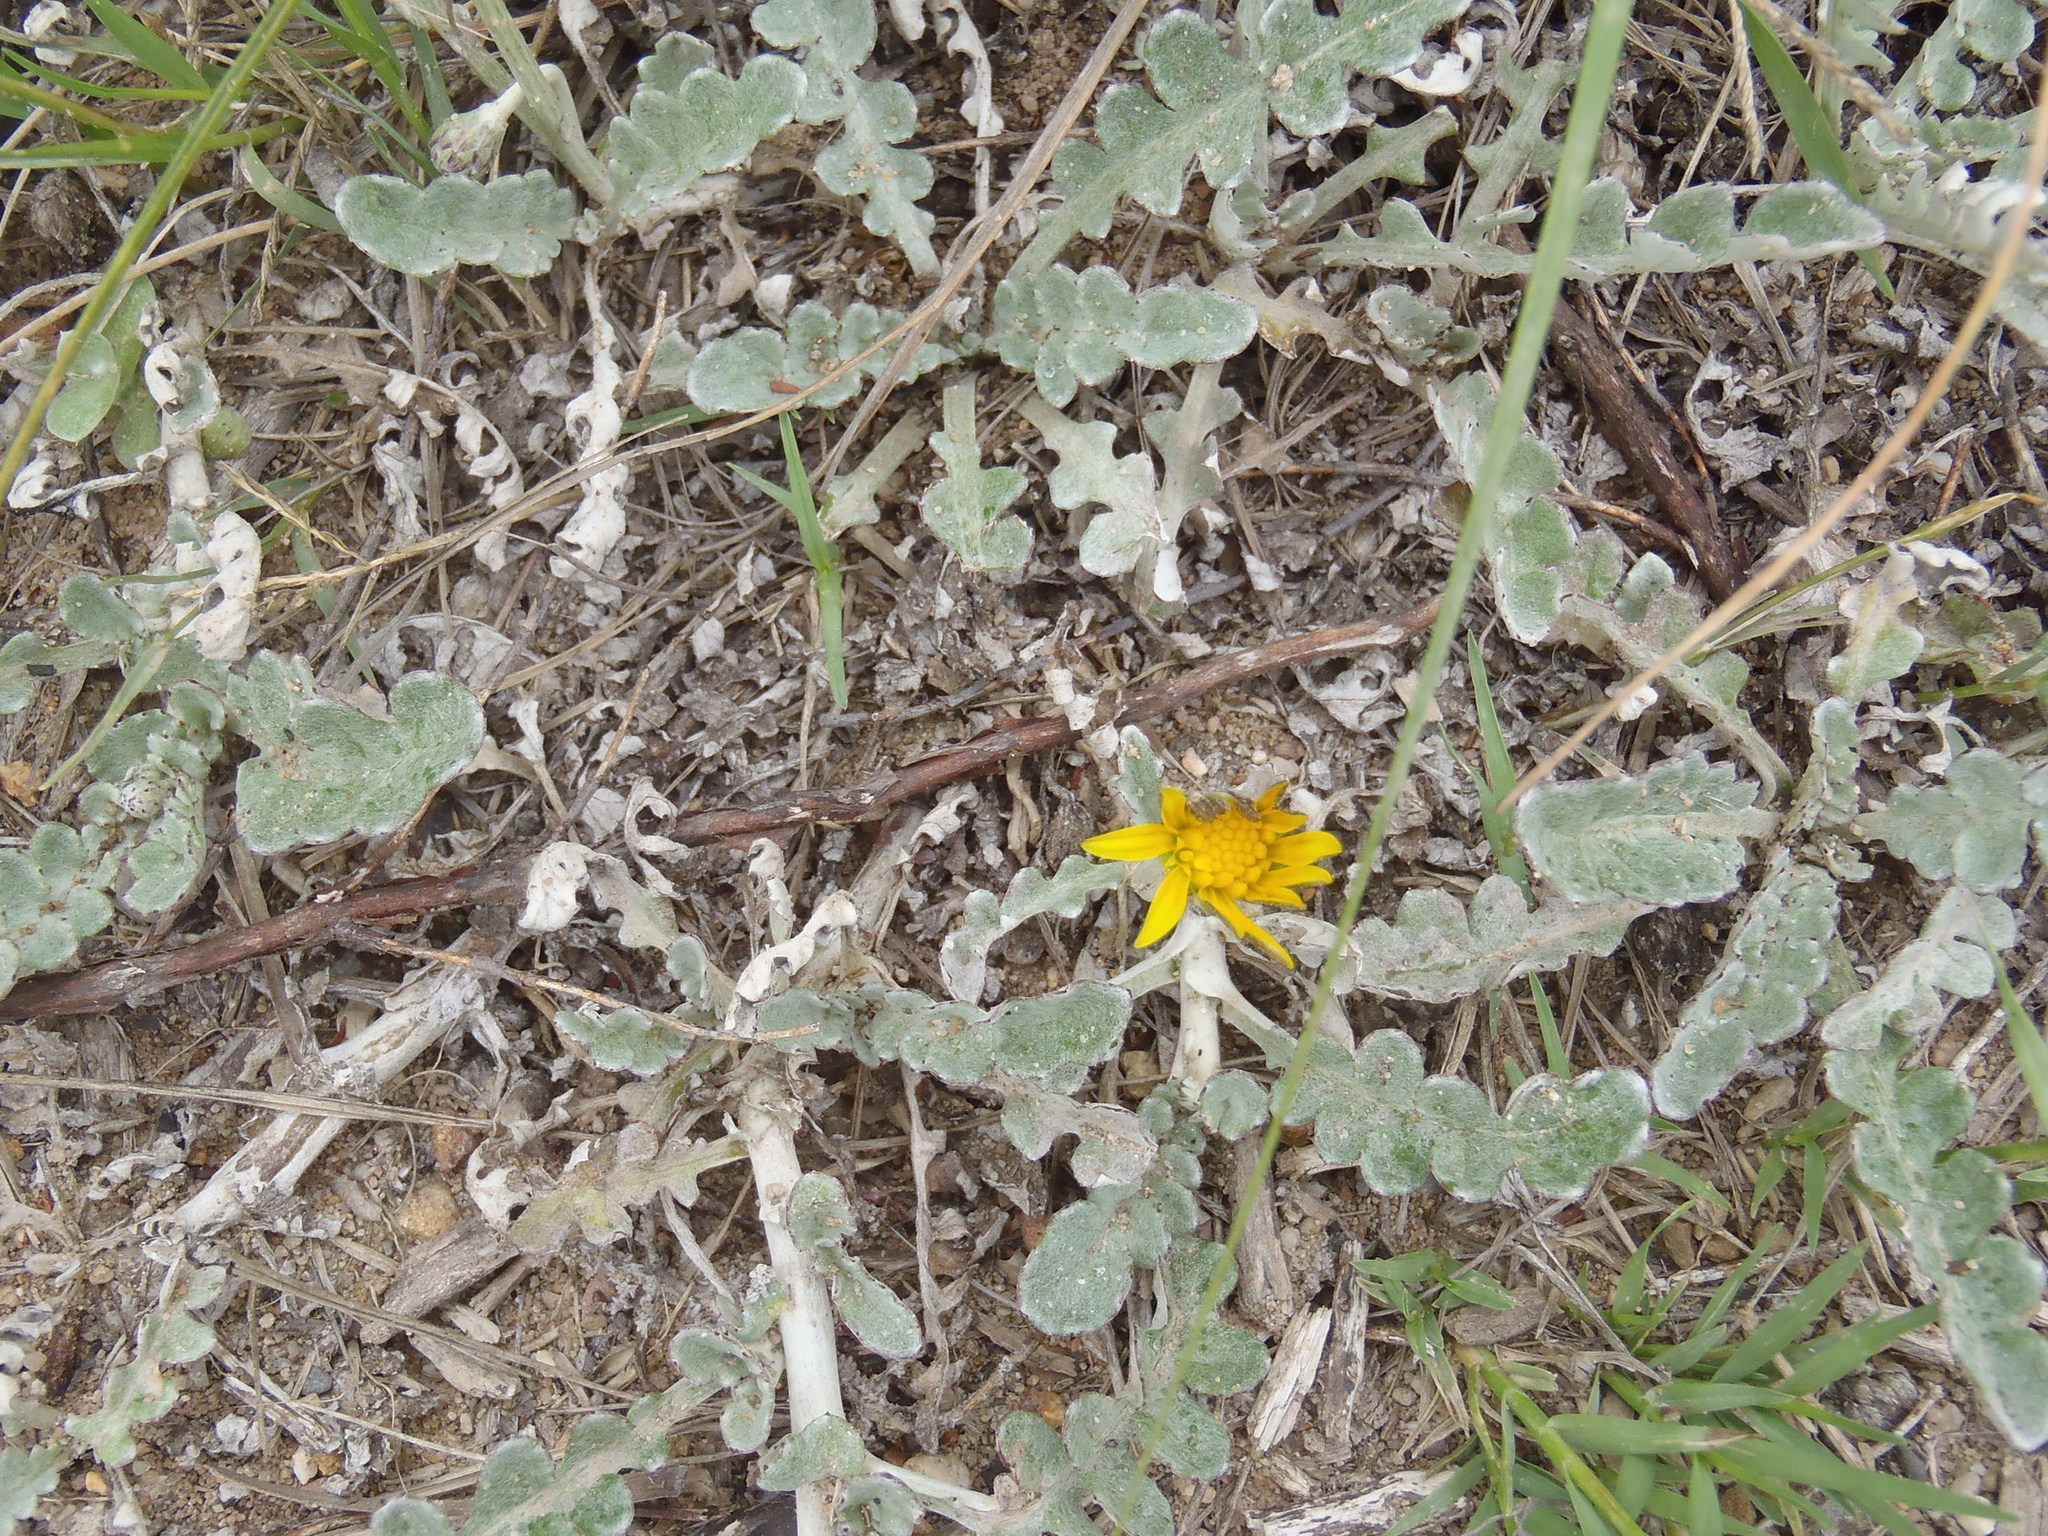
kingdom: Plantae
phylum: Tracheophyta
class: Magnoliopsida
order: Asterales
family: Asteraceae
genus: Arctotheca
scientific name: Arctotheca prostrata
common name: Capeweed
